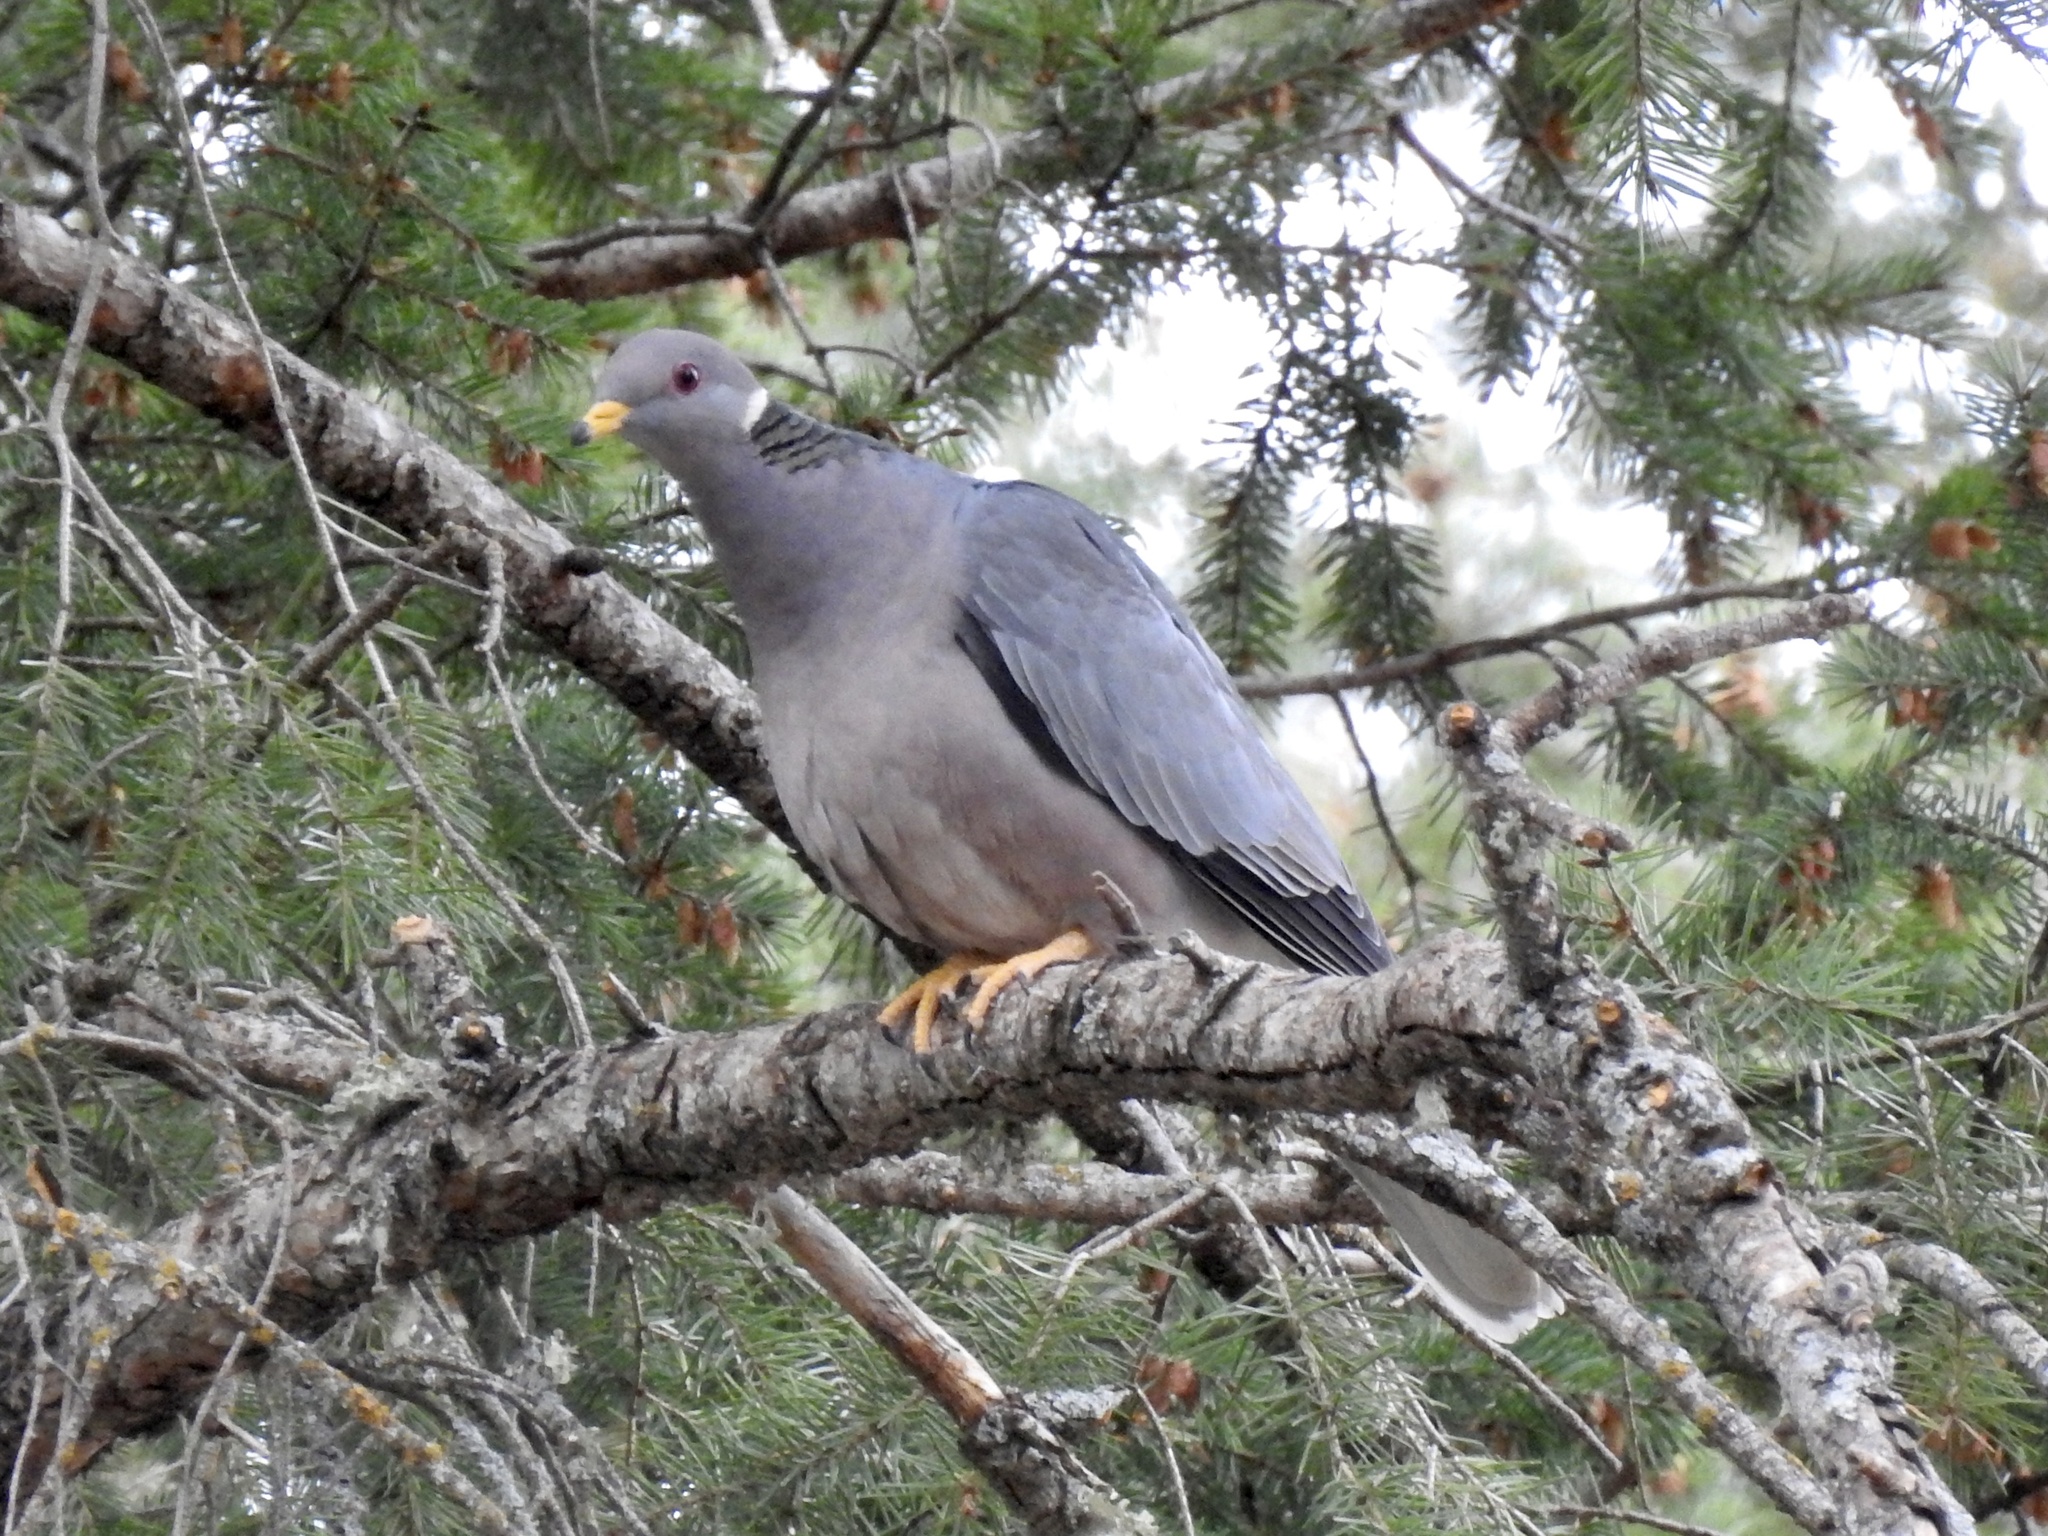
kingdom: Animalia
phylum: Chordata
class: Aves
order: Columbiformes
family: Columbidae
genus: Patagioenas
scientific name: Patagioenas fasciata
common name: Band-tailed pigeon
